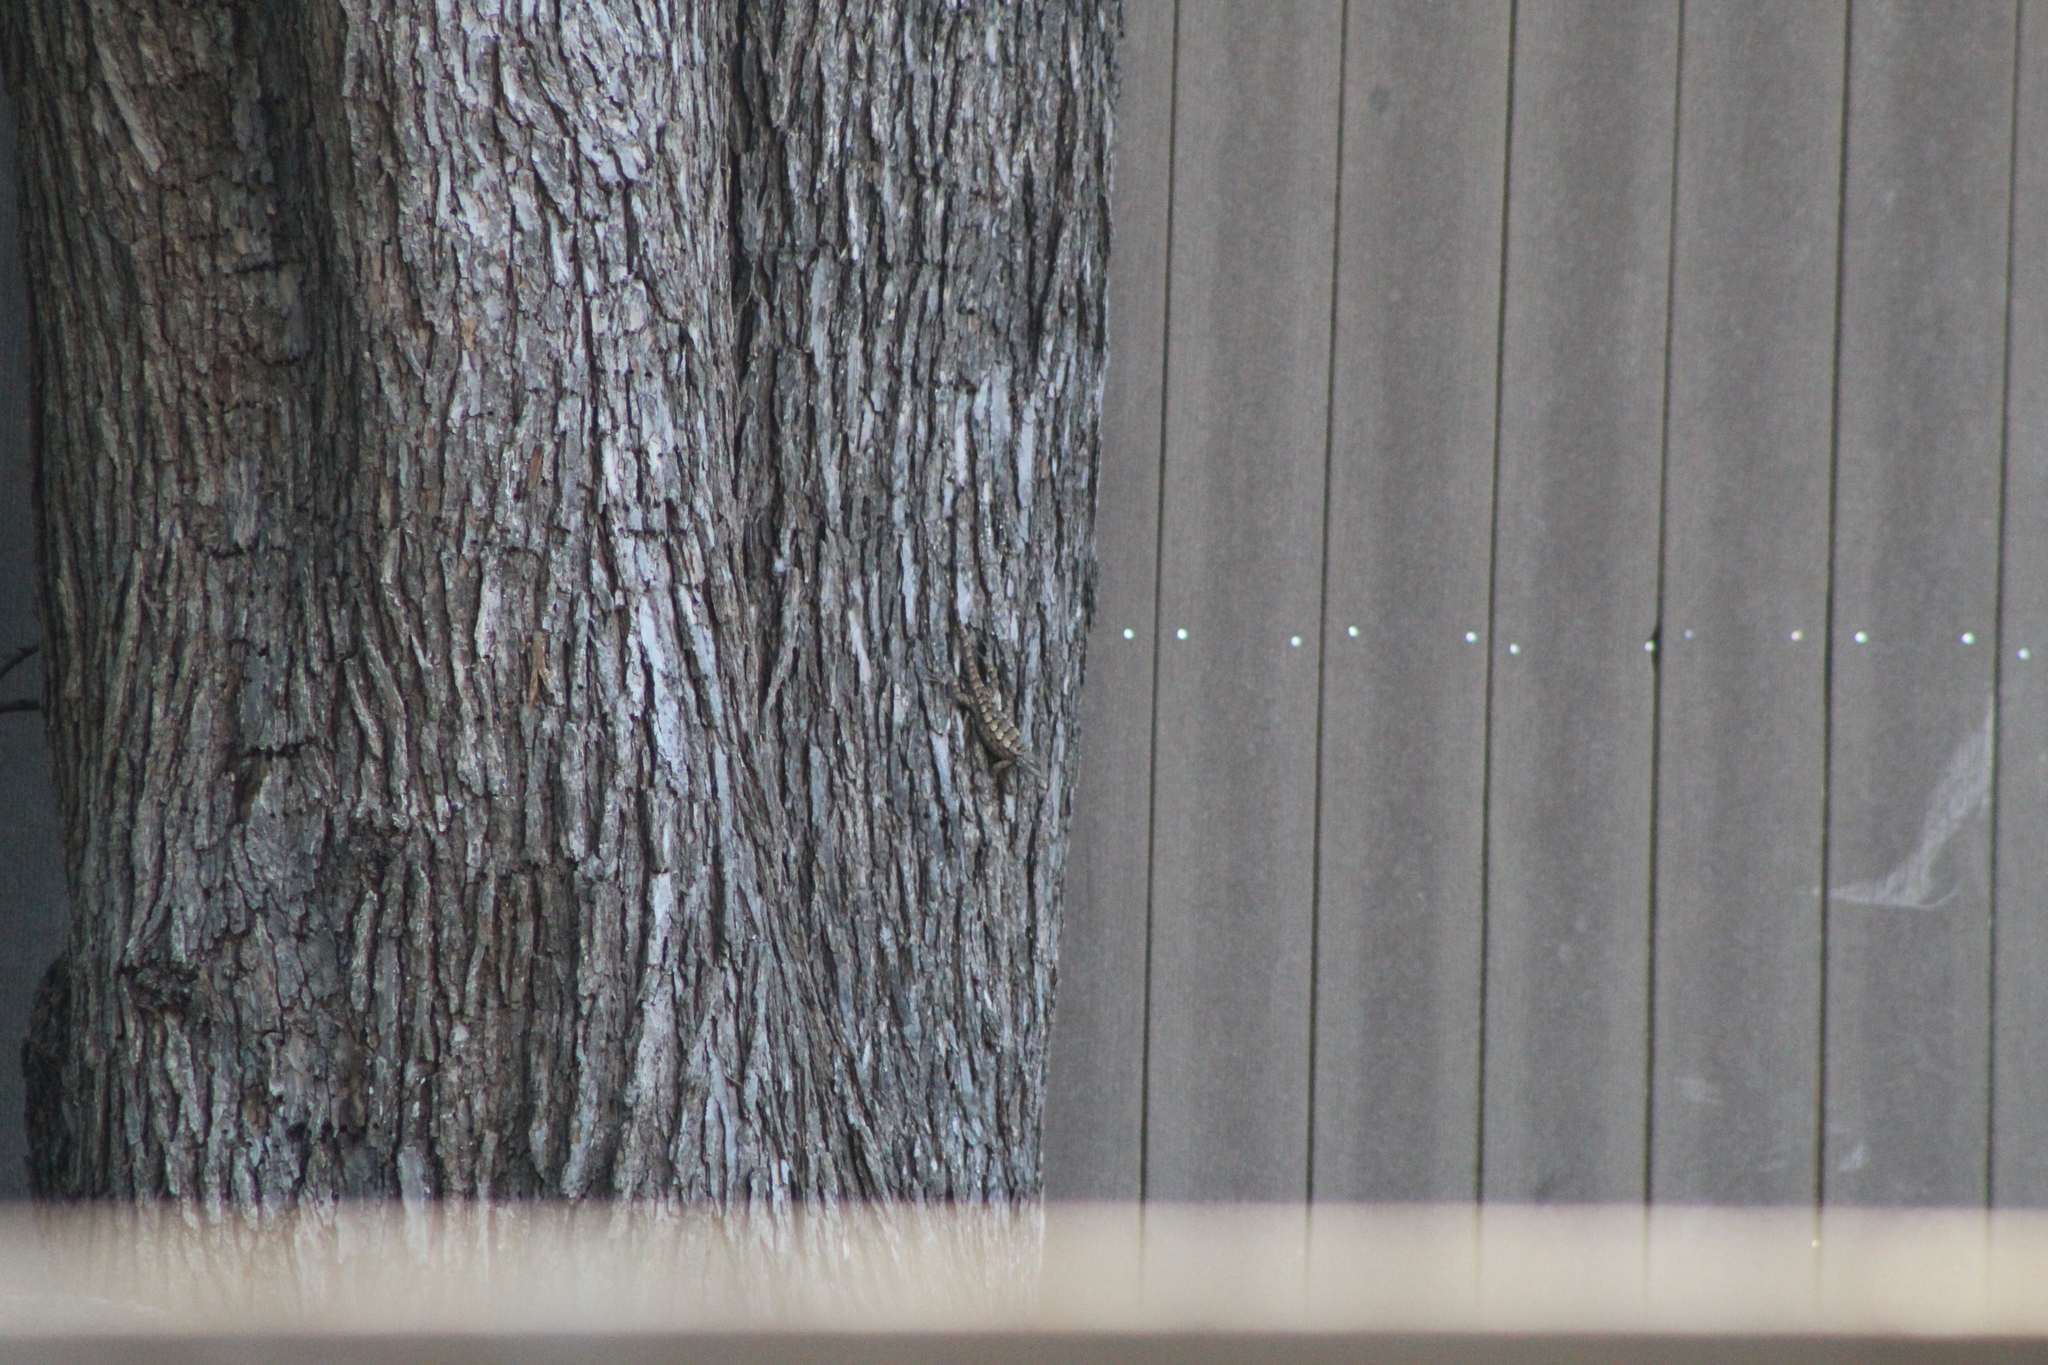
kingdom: Animalia
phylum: Chordata
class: Squamata
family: Phrynosomatidae
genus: Sceloporus
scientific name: Sceloporus olivaceus
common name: Texas spiny lizard
